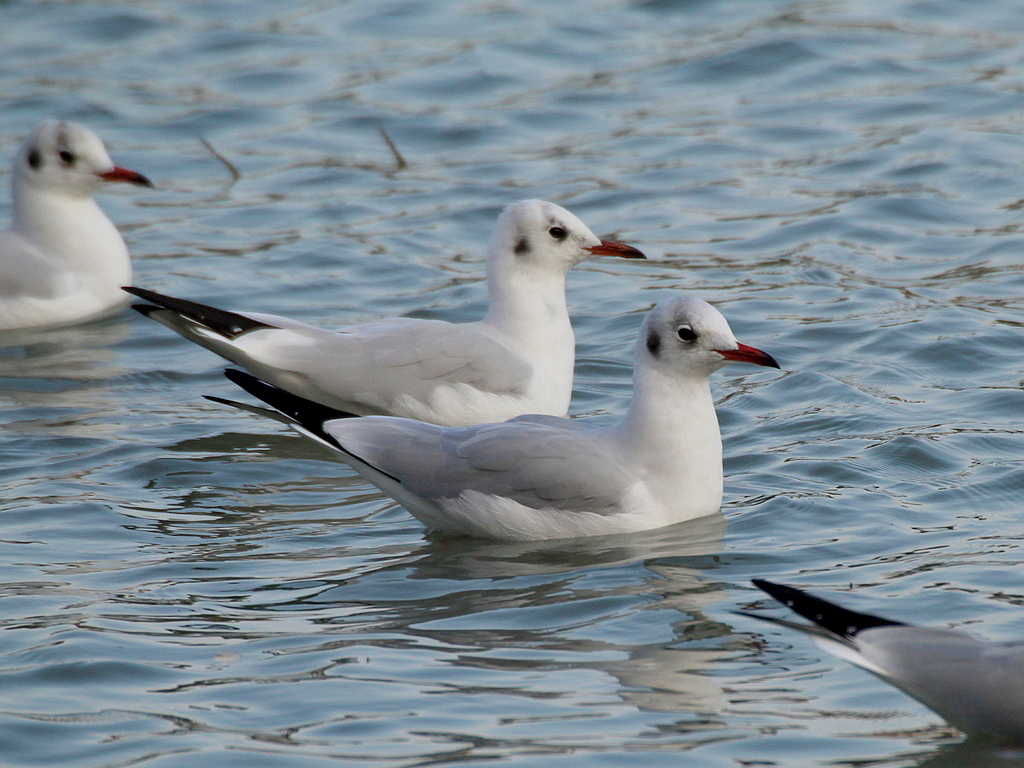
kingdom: Animalia
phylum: Chordata
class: Aves
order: Charadriiformes
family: Laridae
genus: Chroicocephalus
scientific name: Chroicocephalus ridibundus
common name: Black-headed gull
